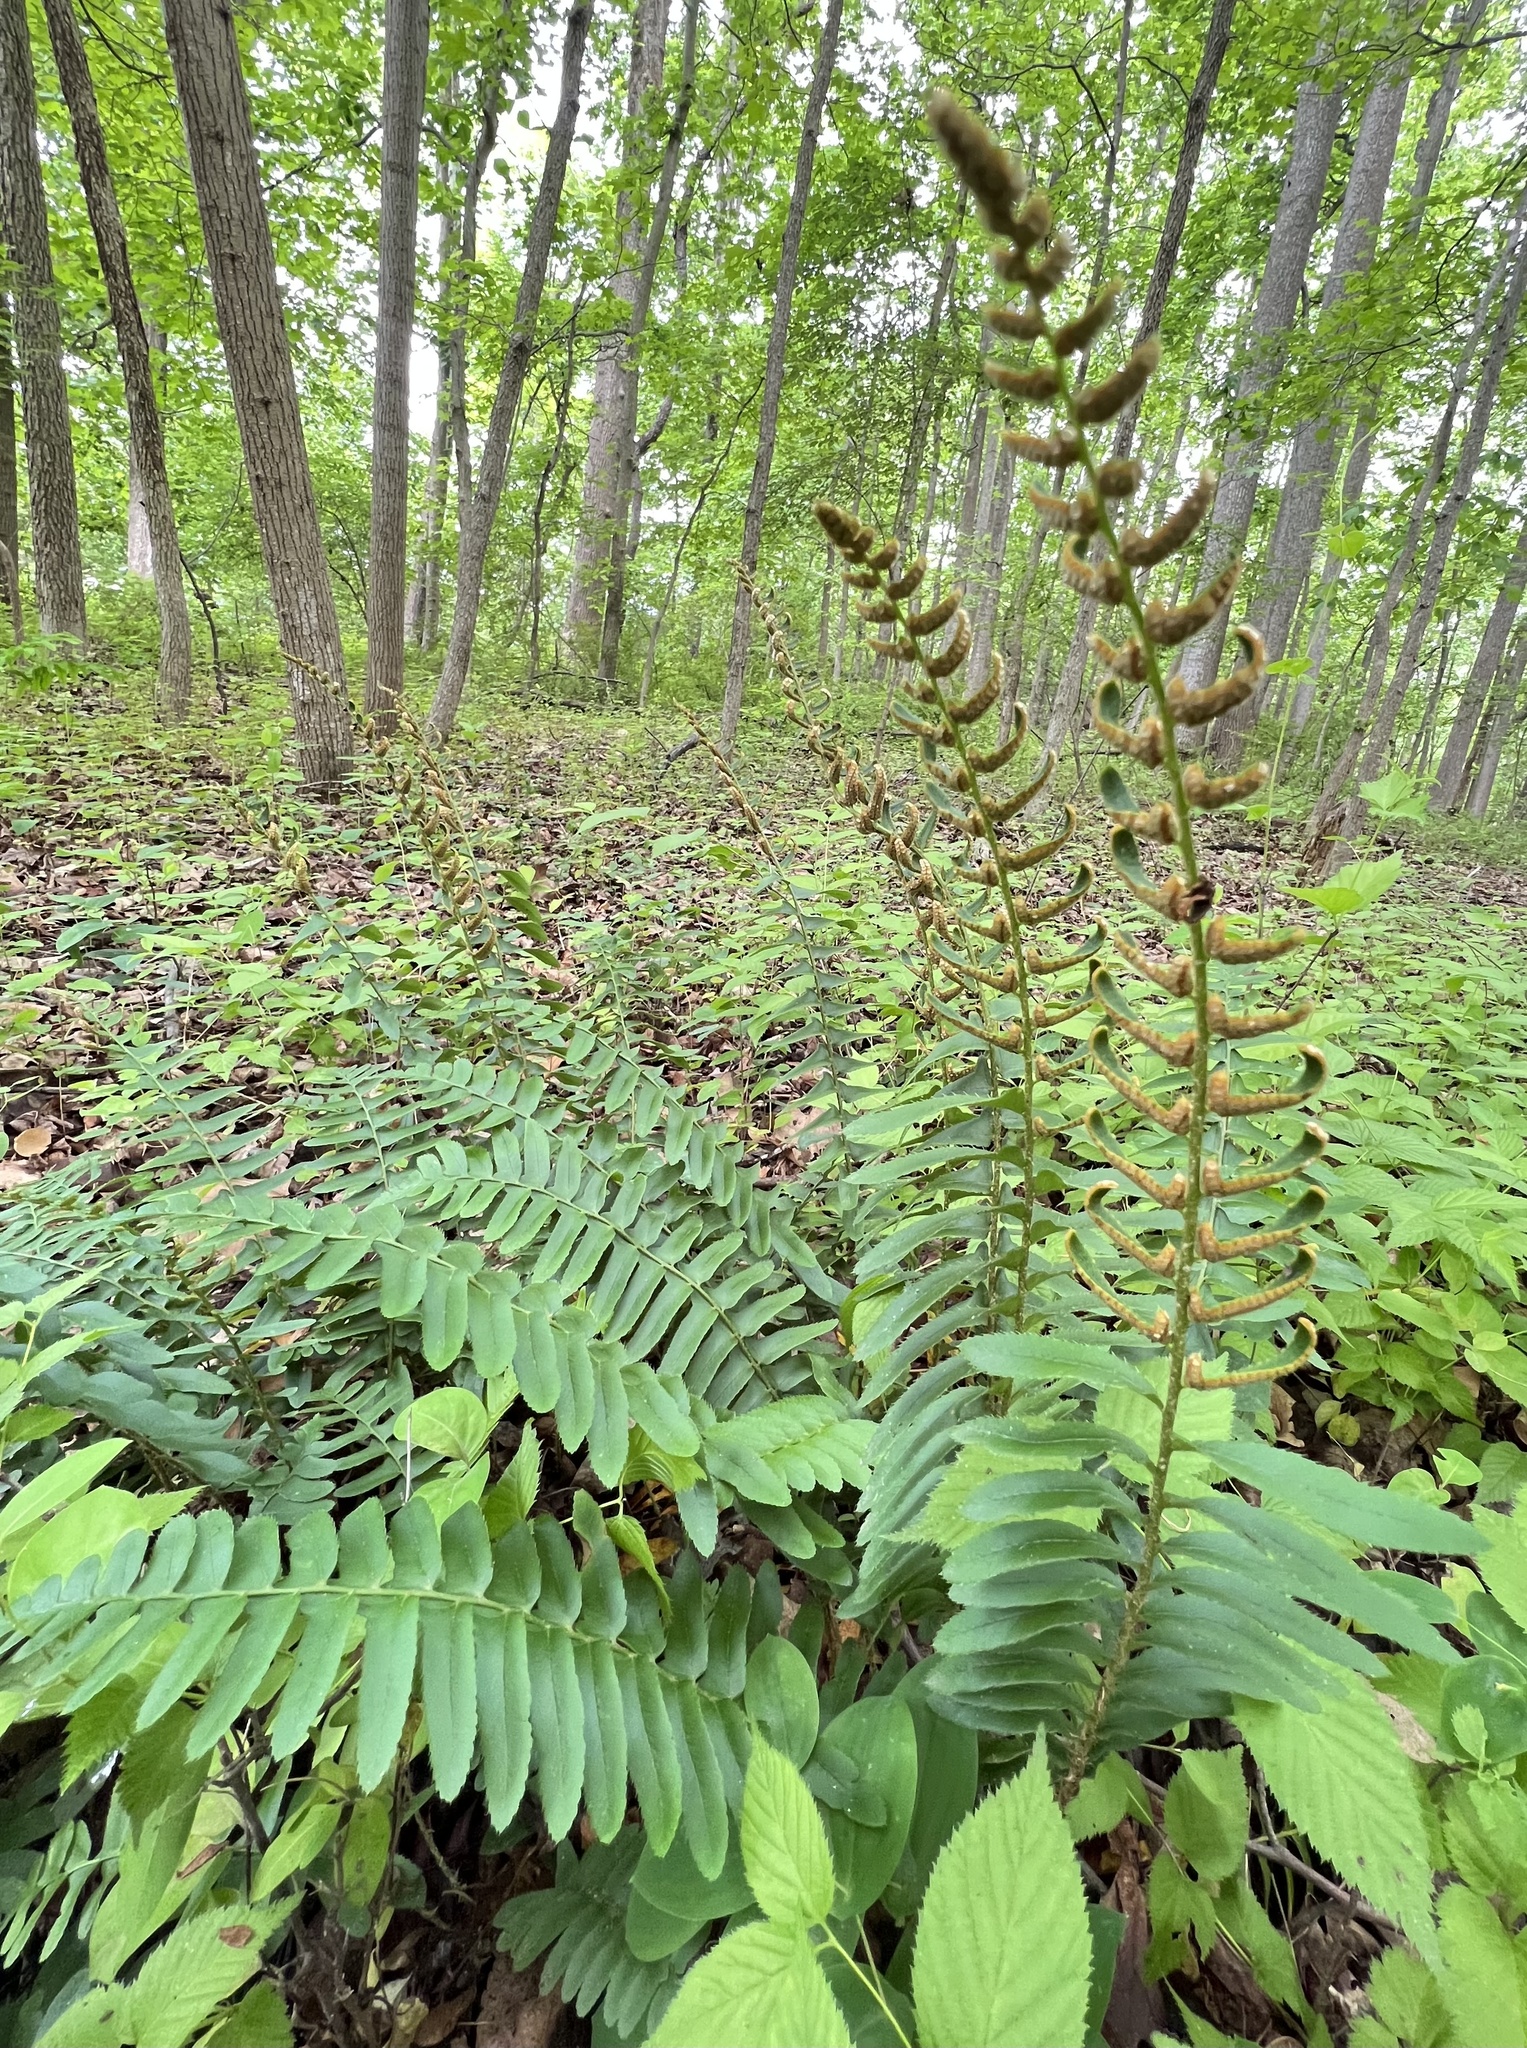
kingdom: Plantae
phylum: Tracheophyta
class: Polypodiopsida
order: Polypodiales
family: Dryopteridaceae
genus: Polystichum
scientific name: Polystichum acrostichoides
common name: Christmas fern
